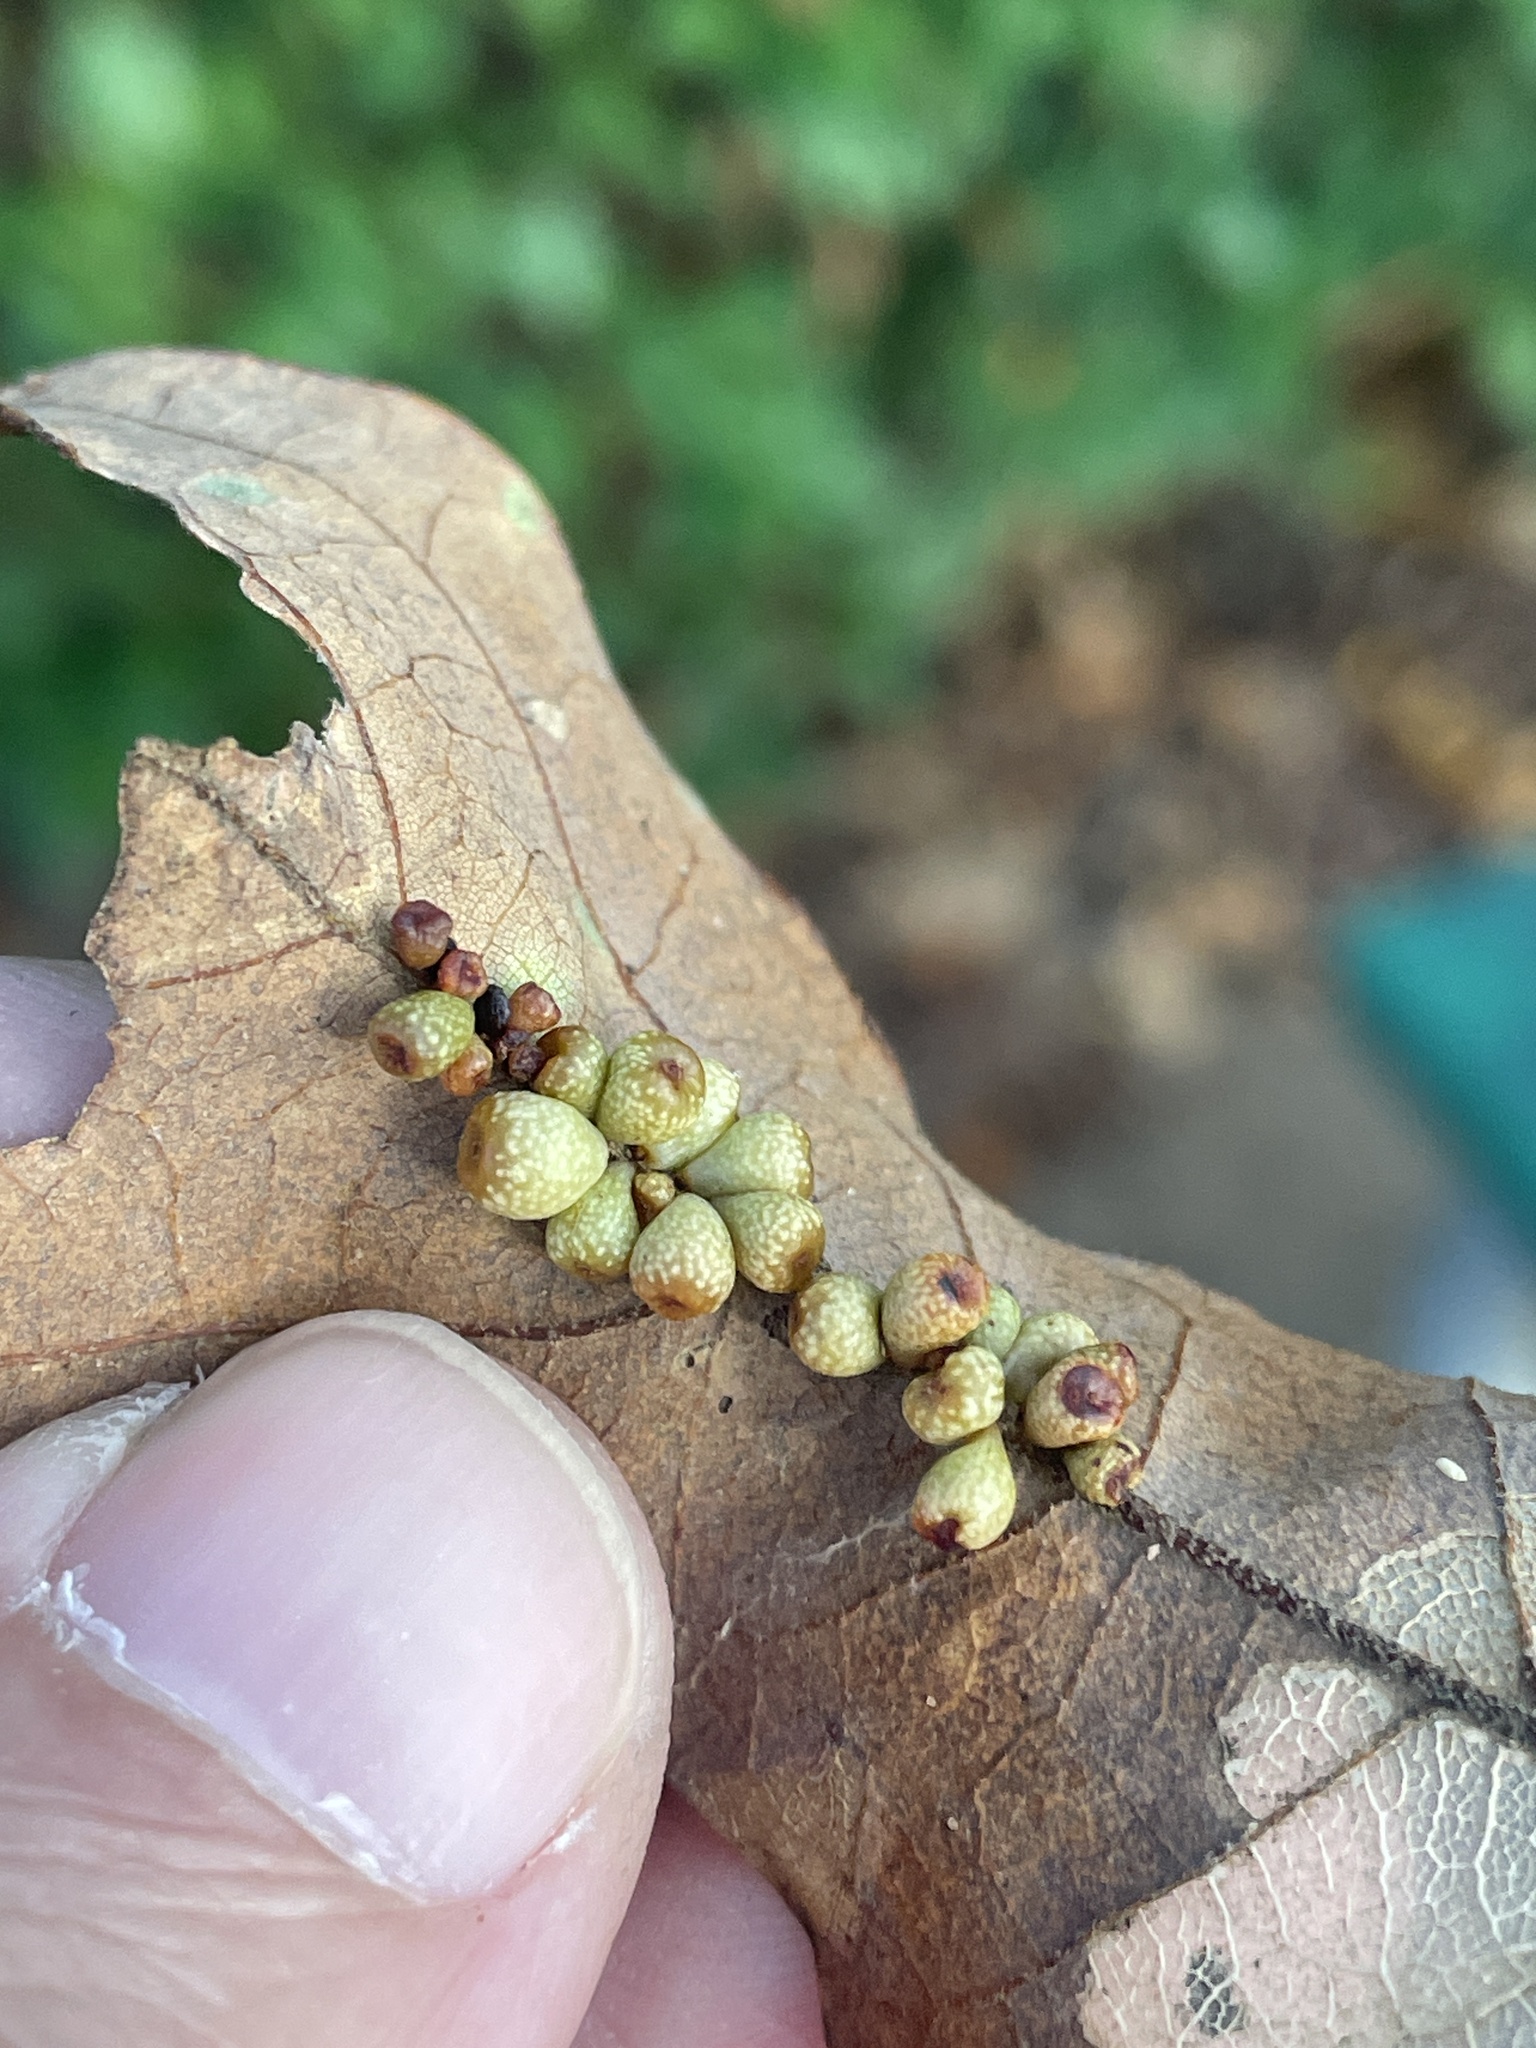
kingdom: Animalia
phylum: Arthropoda
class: Insecta
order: Hymenoptera
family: Cynipidae
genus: Andricus
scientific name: Andricus lustrans
